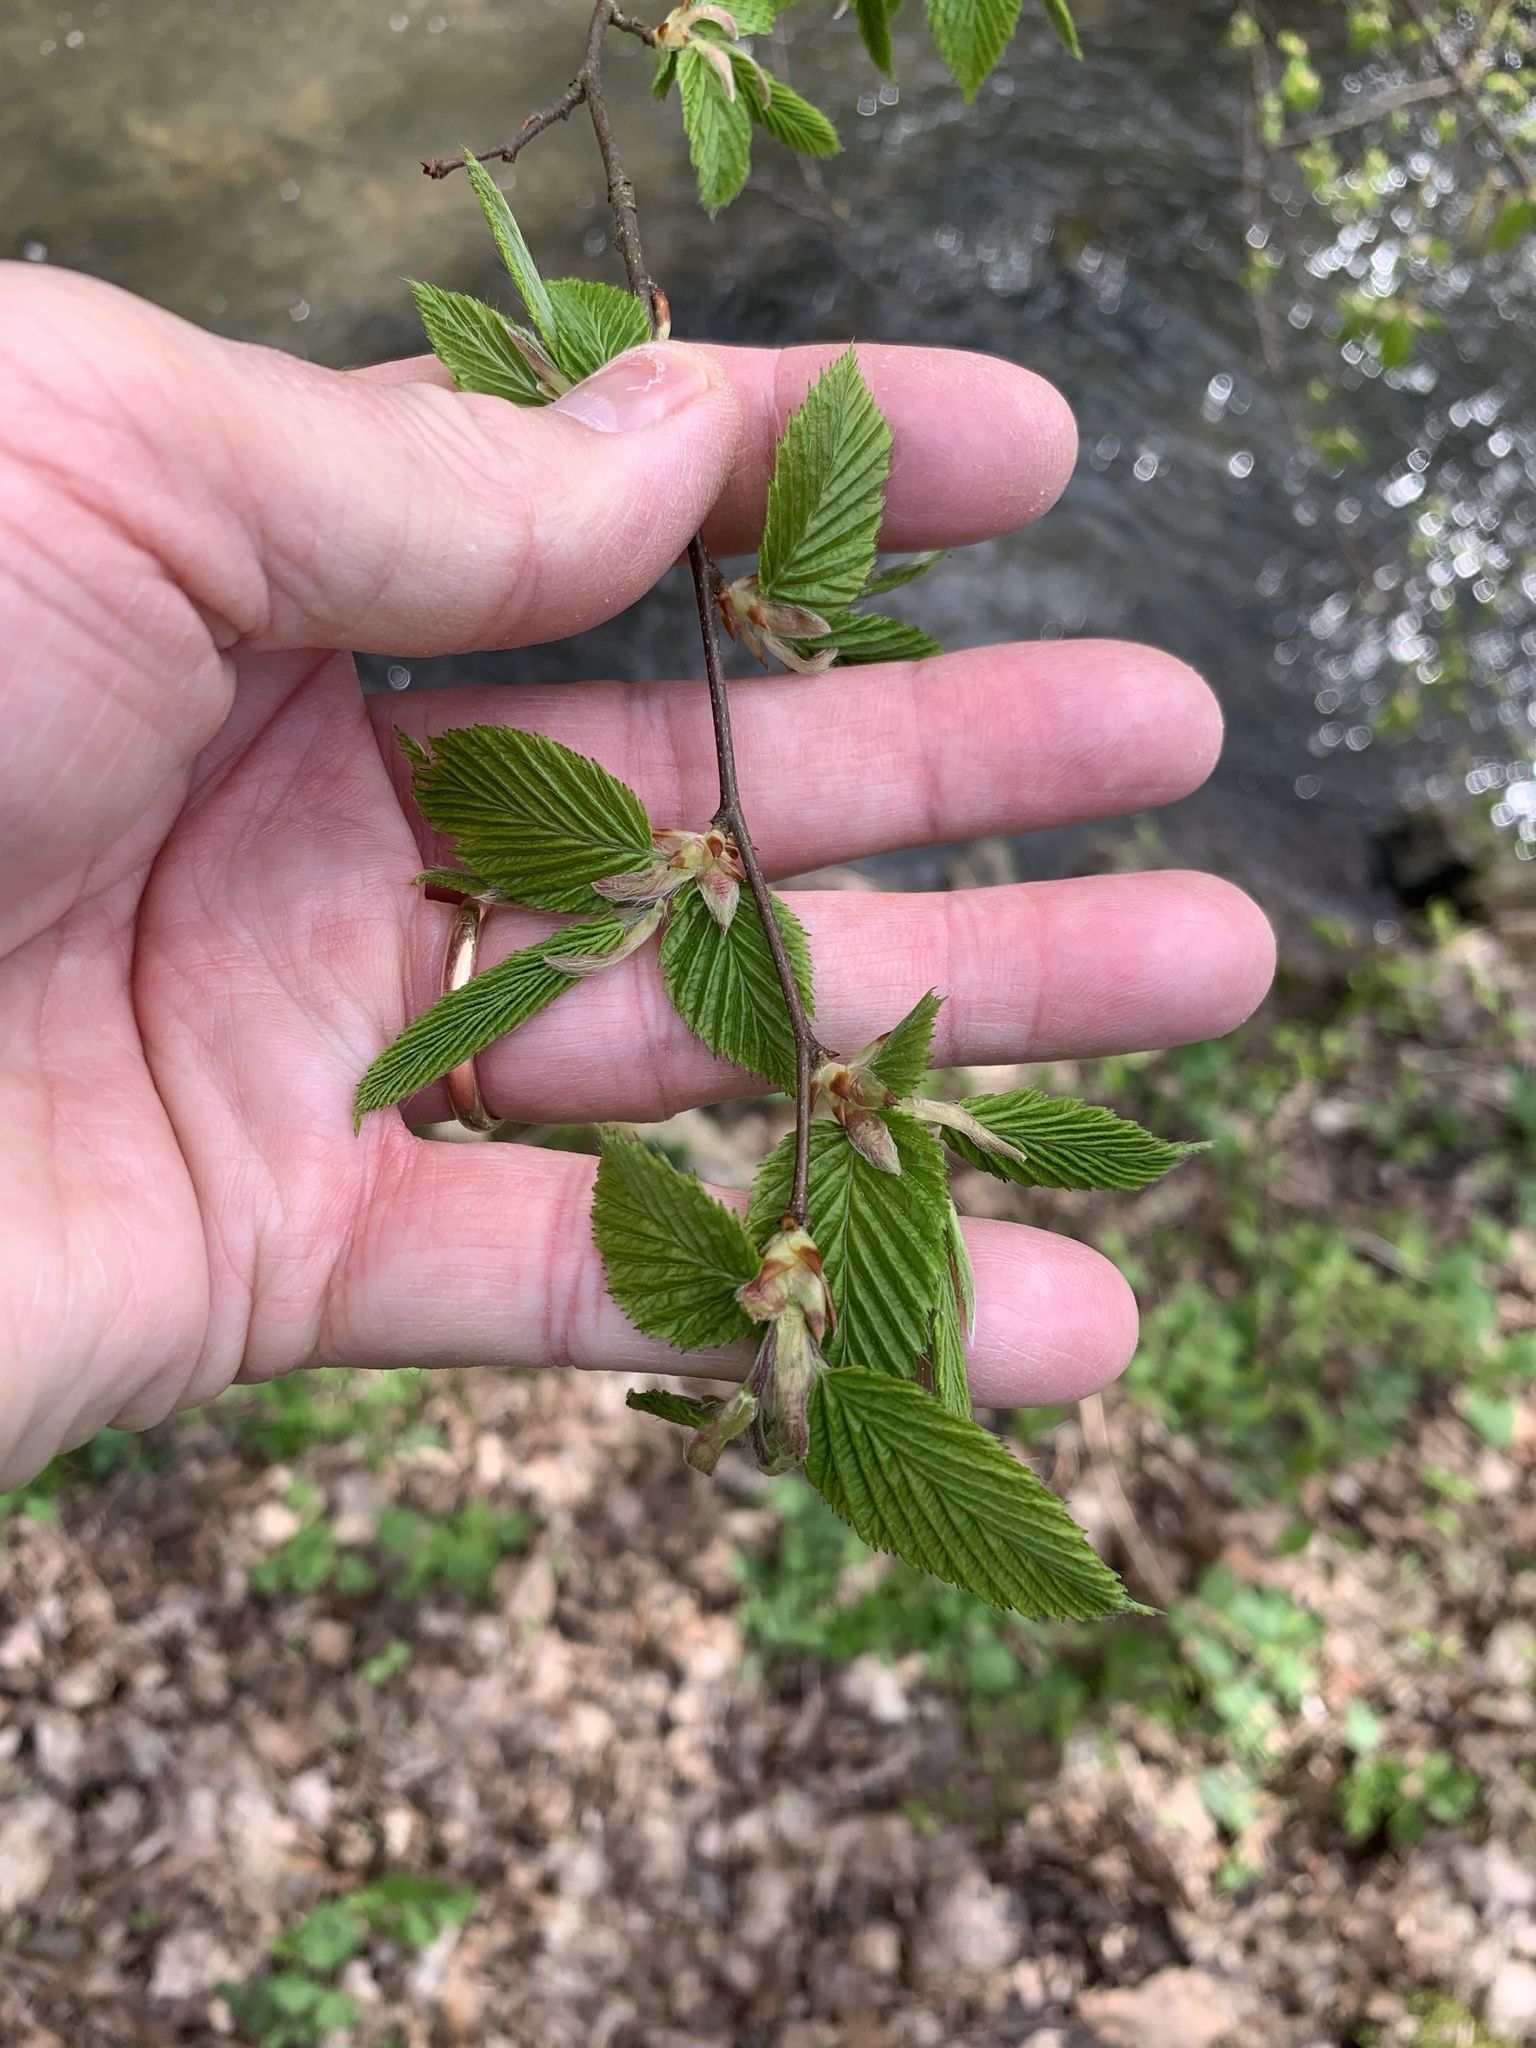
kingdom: Plantae
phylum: Tracheophyta
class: Magnoliopsida
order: Fagales
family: Betulaceae
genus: Carpinus
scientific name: Carpinus betulus
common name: Hornbeam
